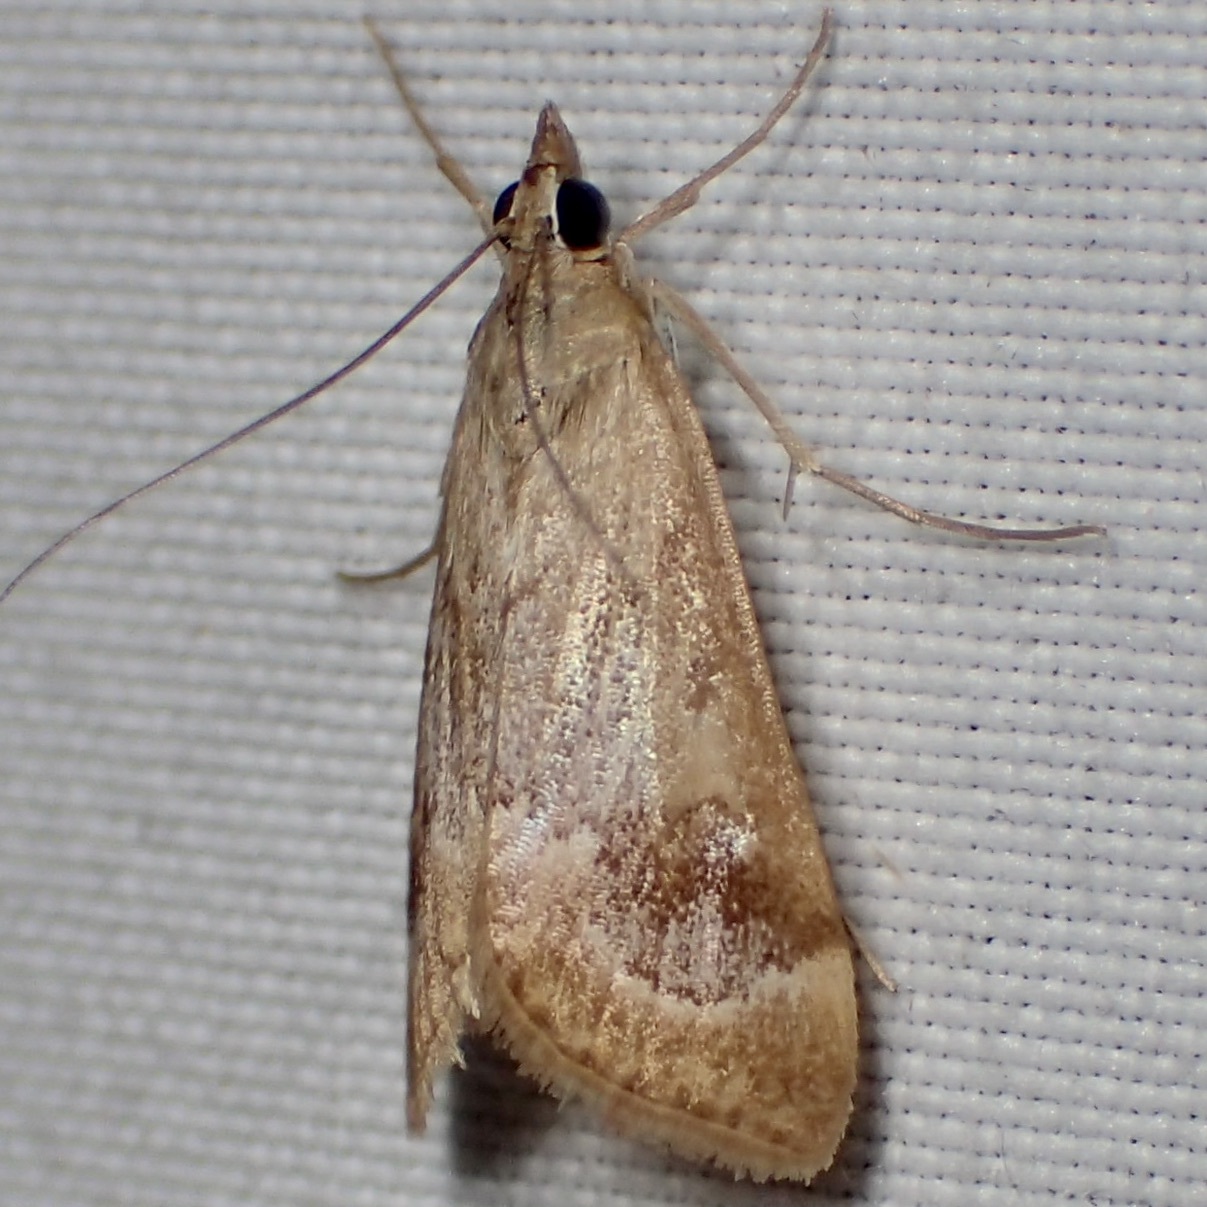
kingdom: Animalia
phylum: Arthropoda
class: Insecta
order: Lepidoptera
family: Crambidae
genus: Loxostege
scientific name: Loxostege typhonalis
